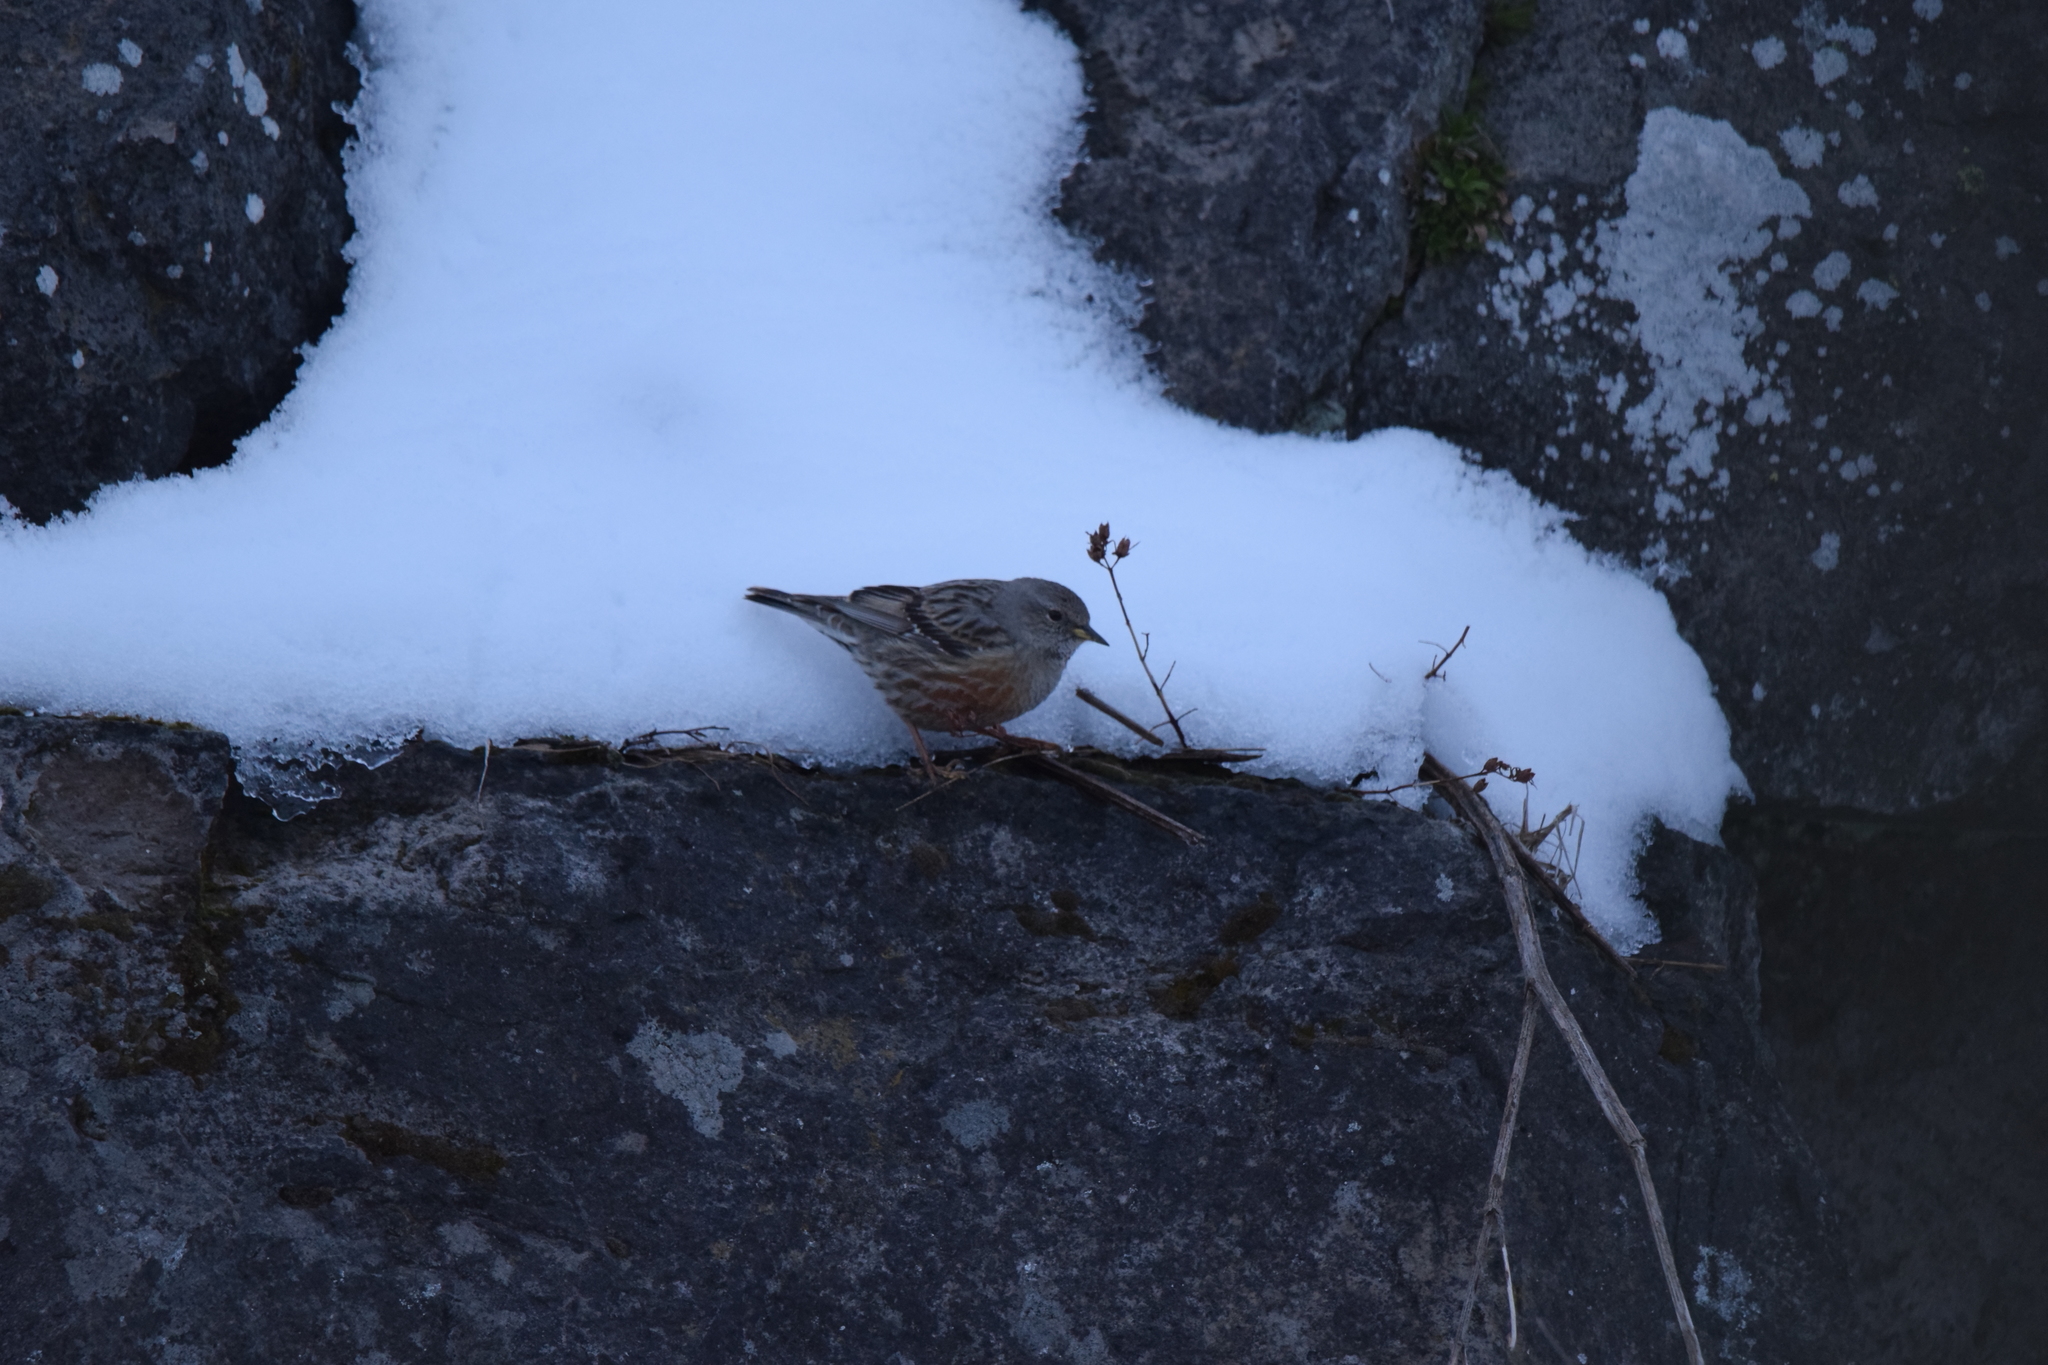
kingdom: Animalia
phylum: Chordata
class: Aves
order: Passeriformes
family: Prunellidae
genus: Prunella
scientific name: Prunella collaris
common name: Alpine accentor
